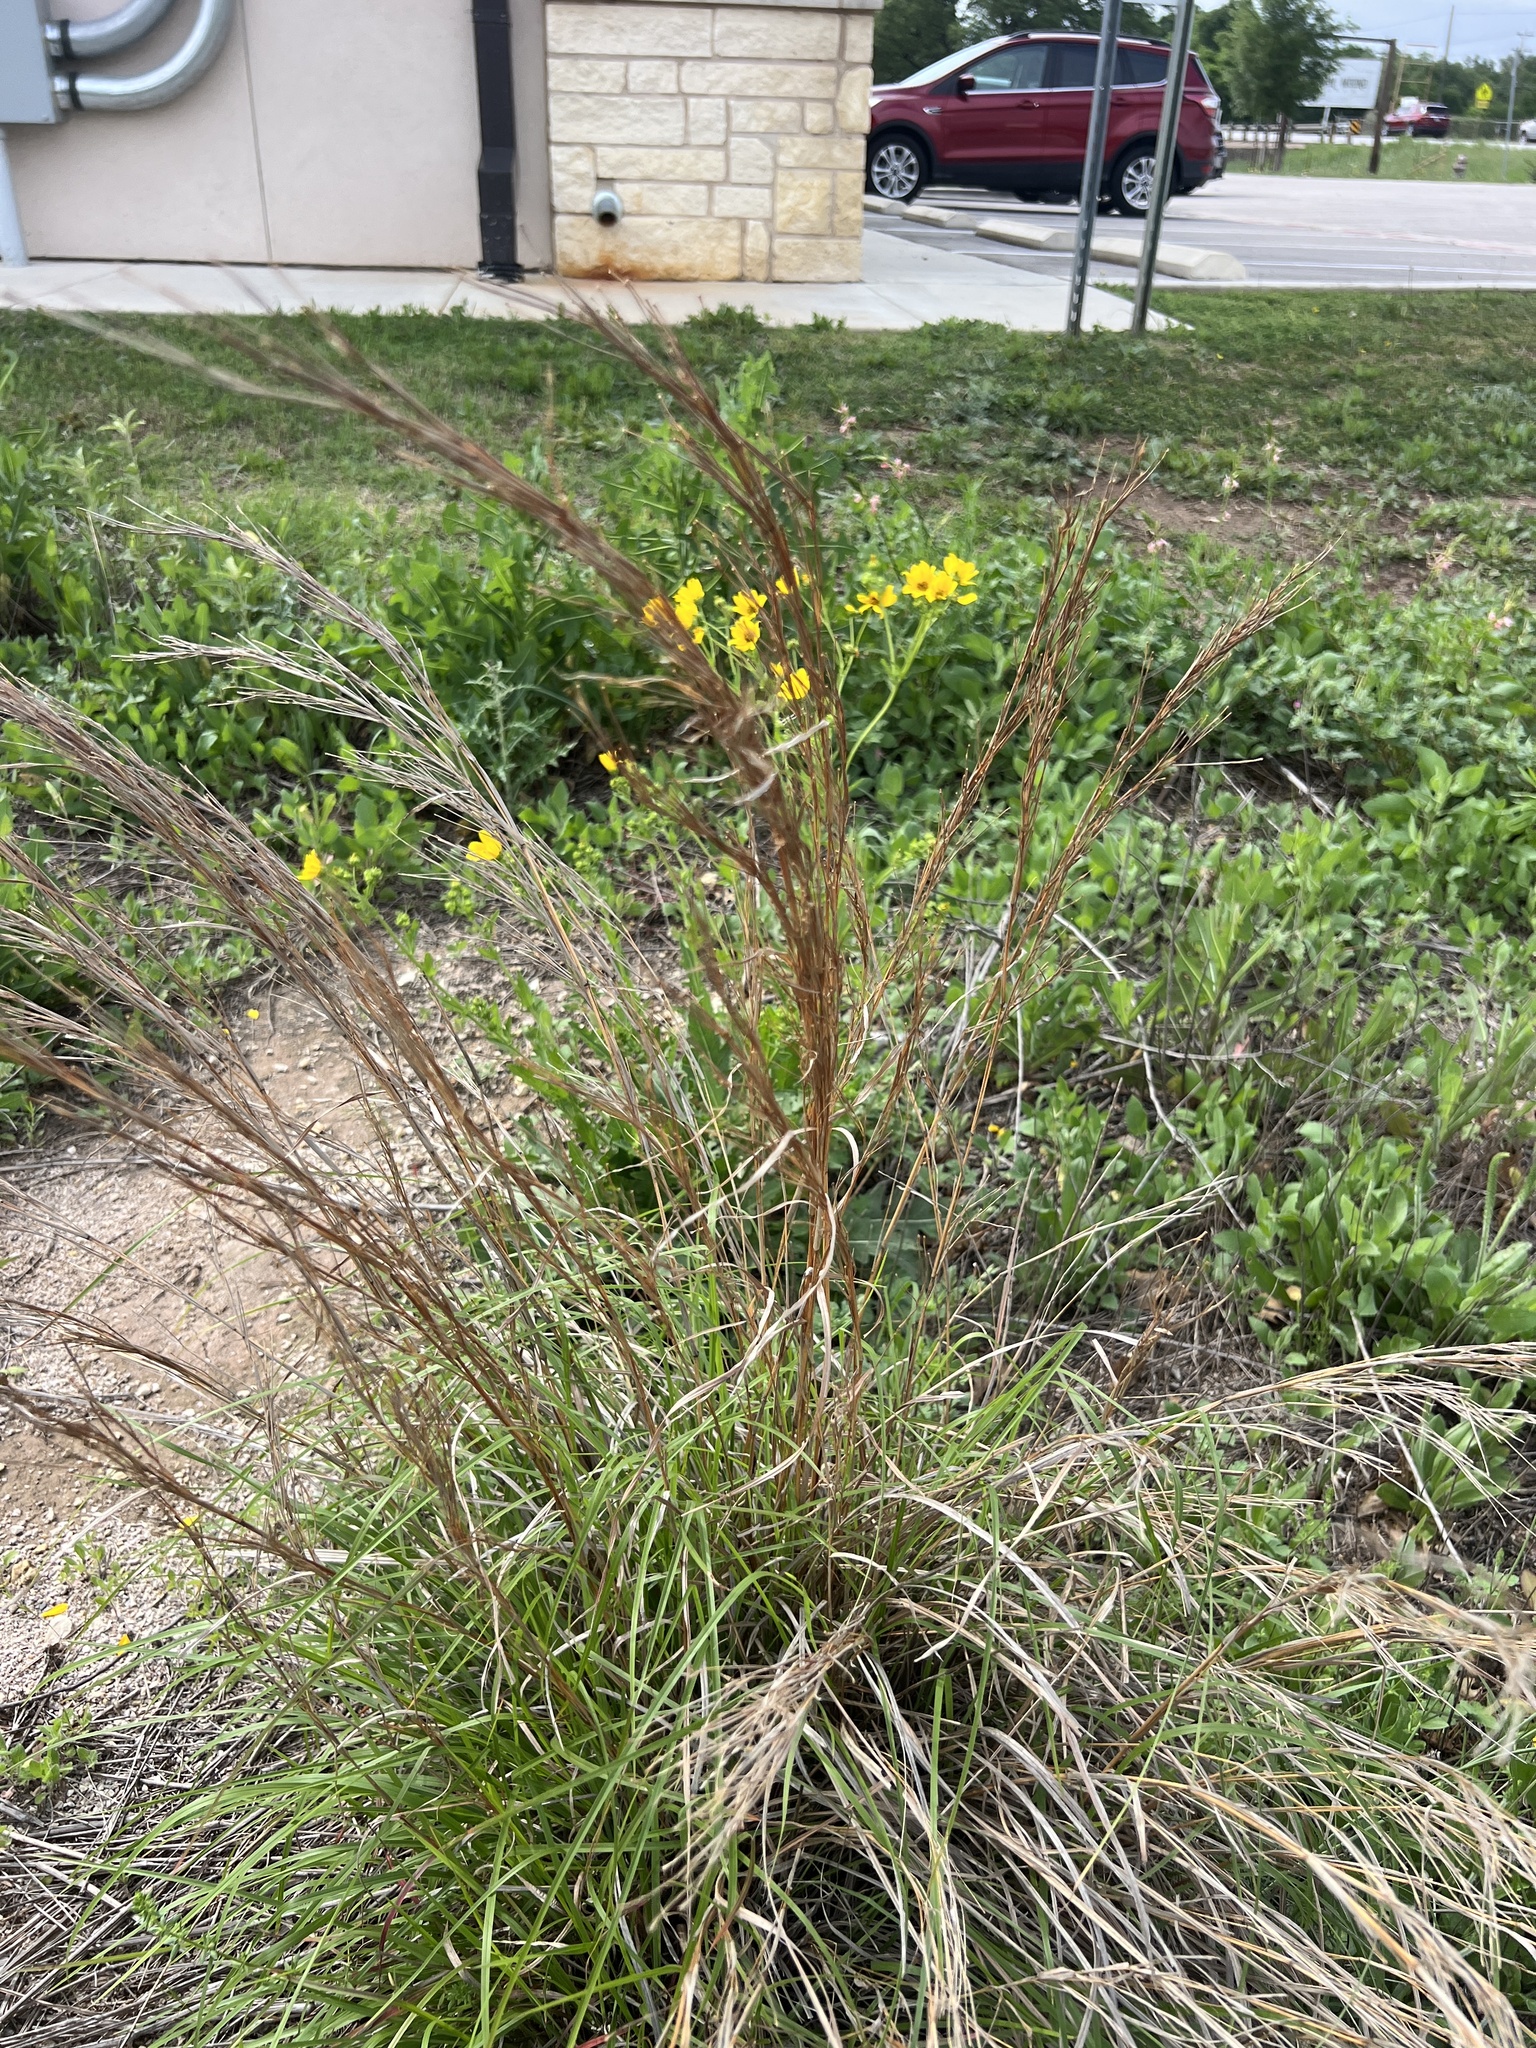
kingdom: Plantae
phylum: Tracheophyta
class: Liliopsida
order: Poales
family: Poaceae
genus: Schizachyrium
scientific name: Schizachyrium scoparium
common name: Little bluestem
